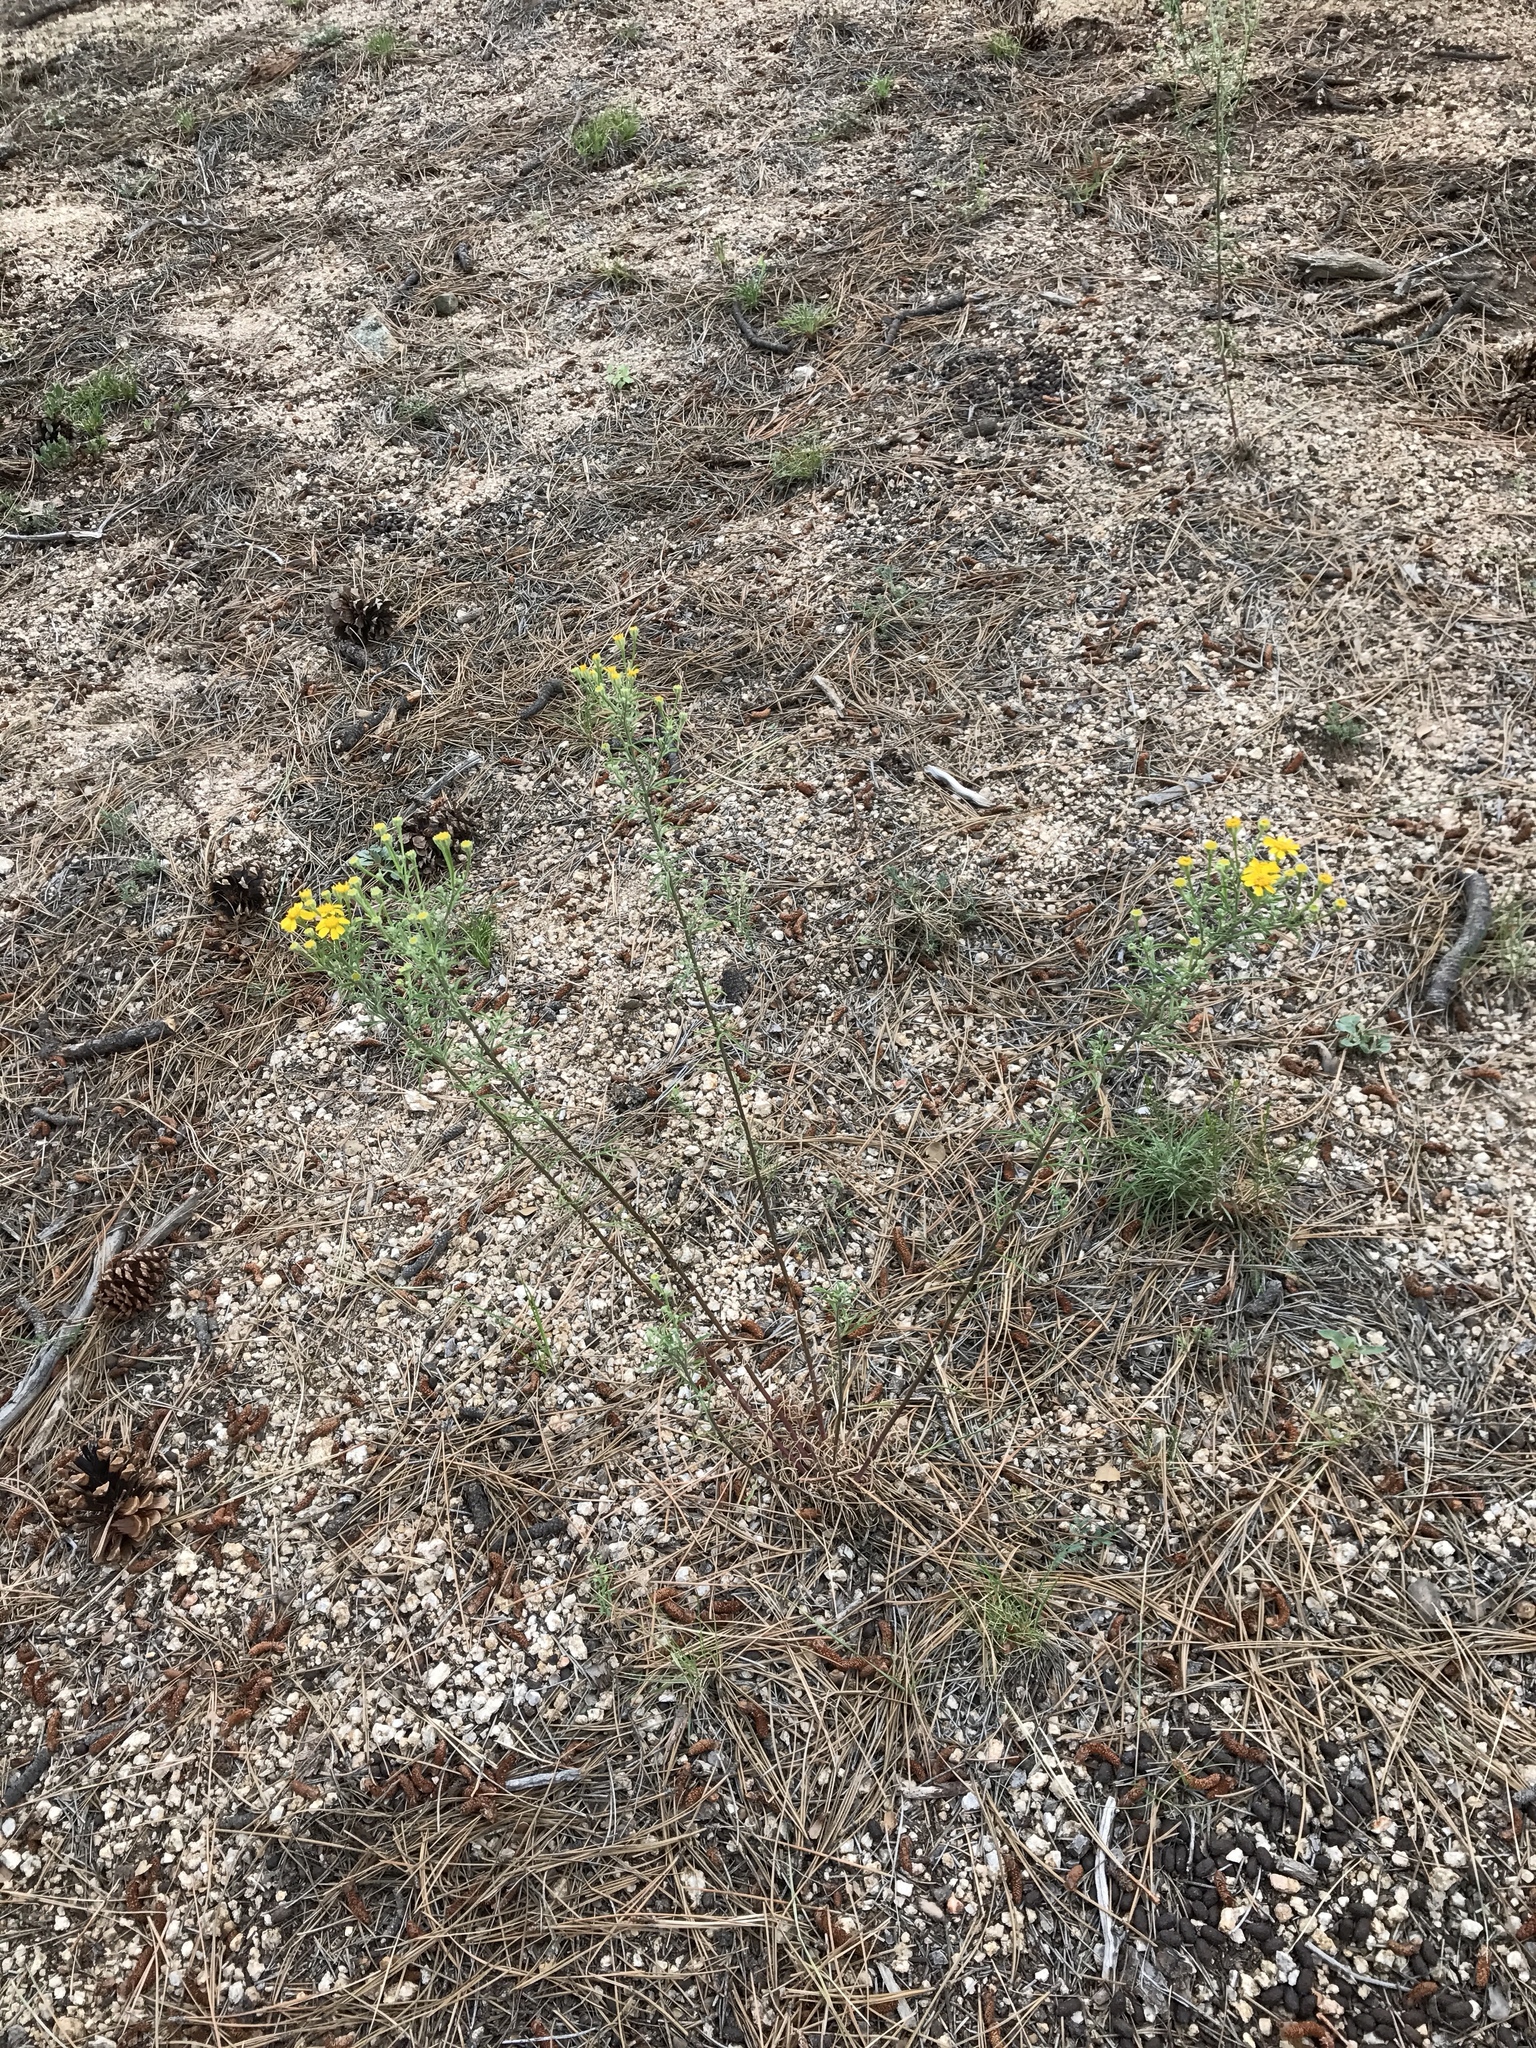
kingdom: Plantae
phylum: Tracheophyta
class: Magnoliopsida
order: Asterales
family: Asteraceae
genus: Hymenoxys
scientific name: Hymenoxys rusbyi
